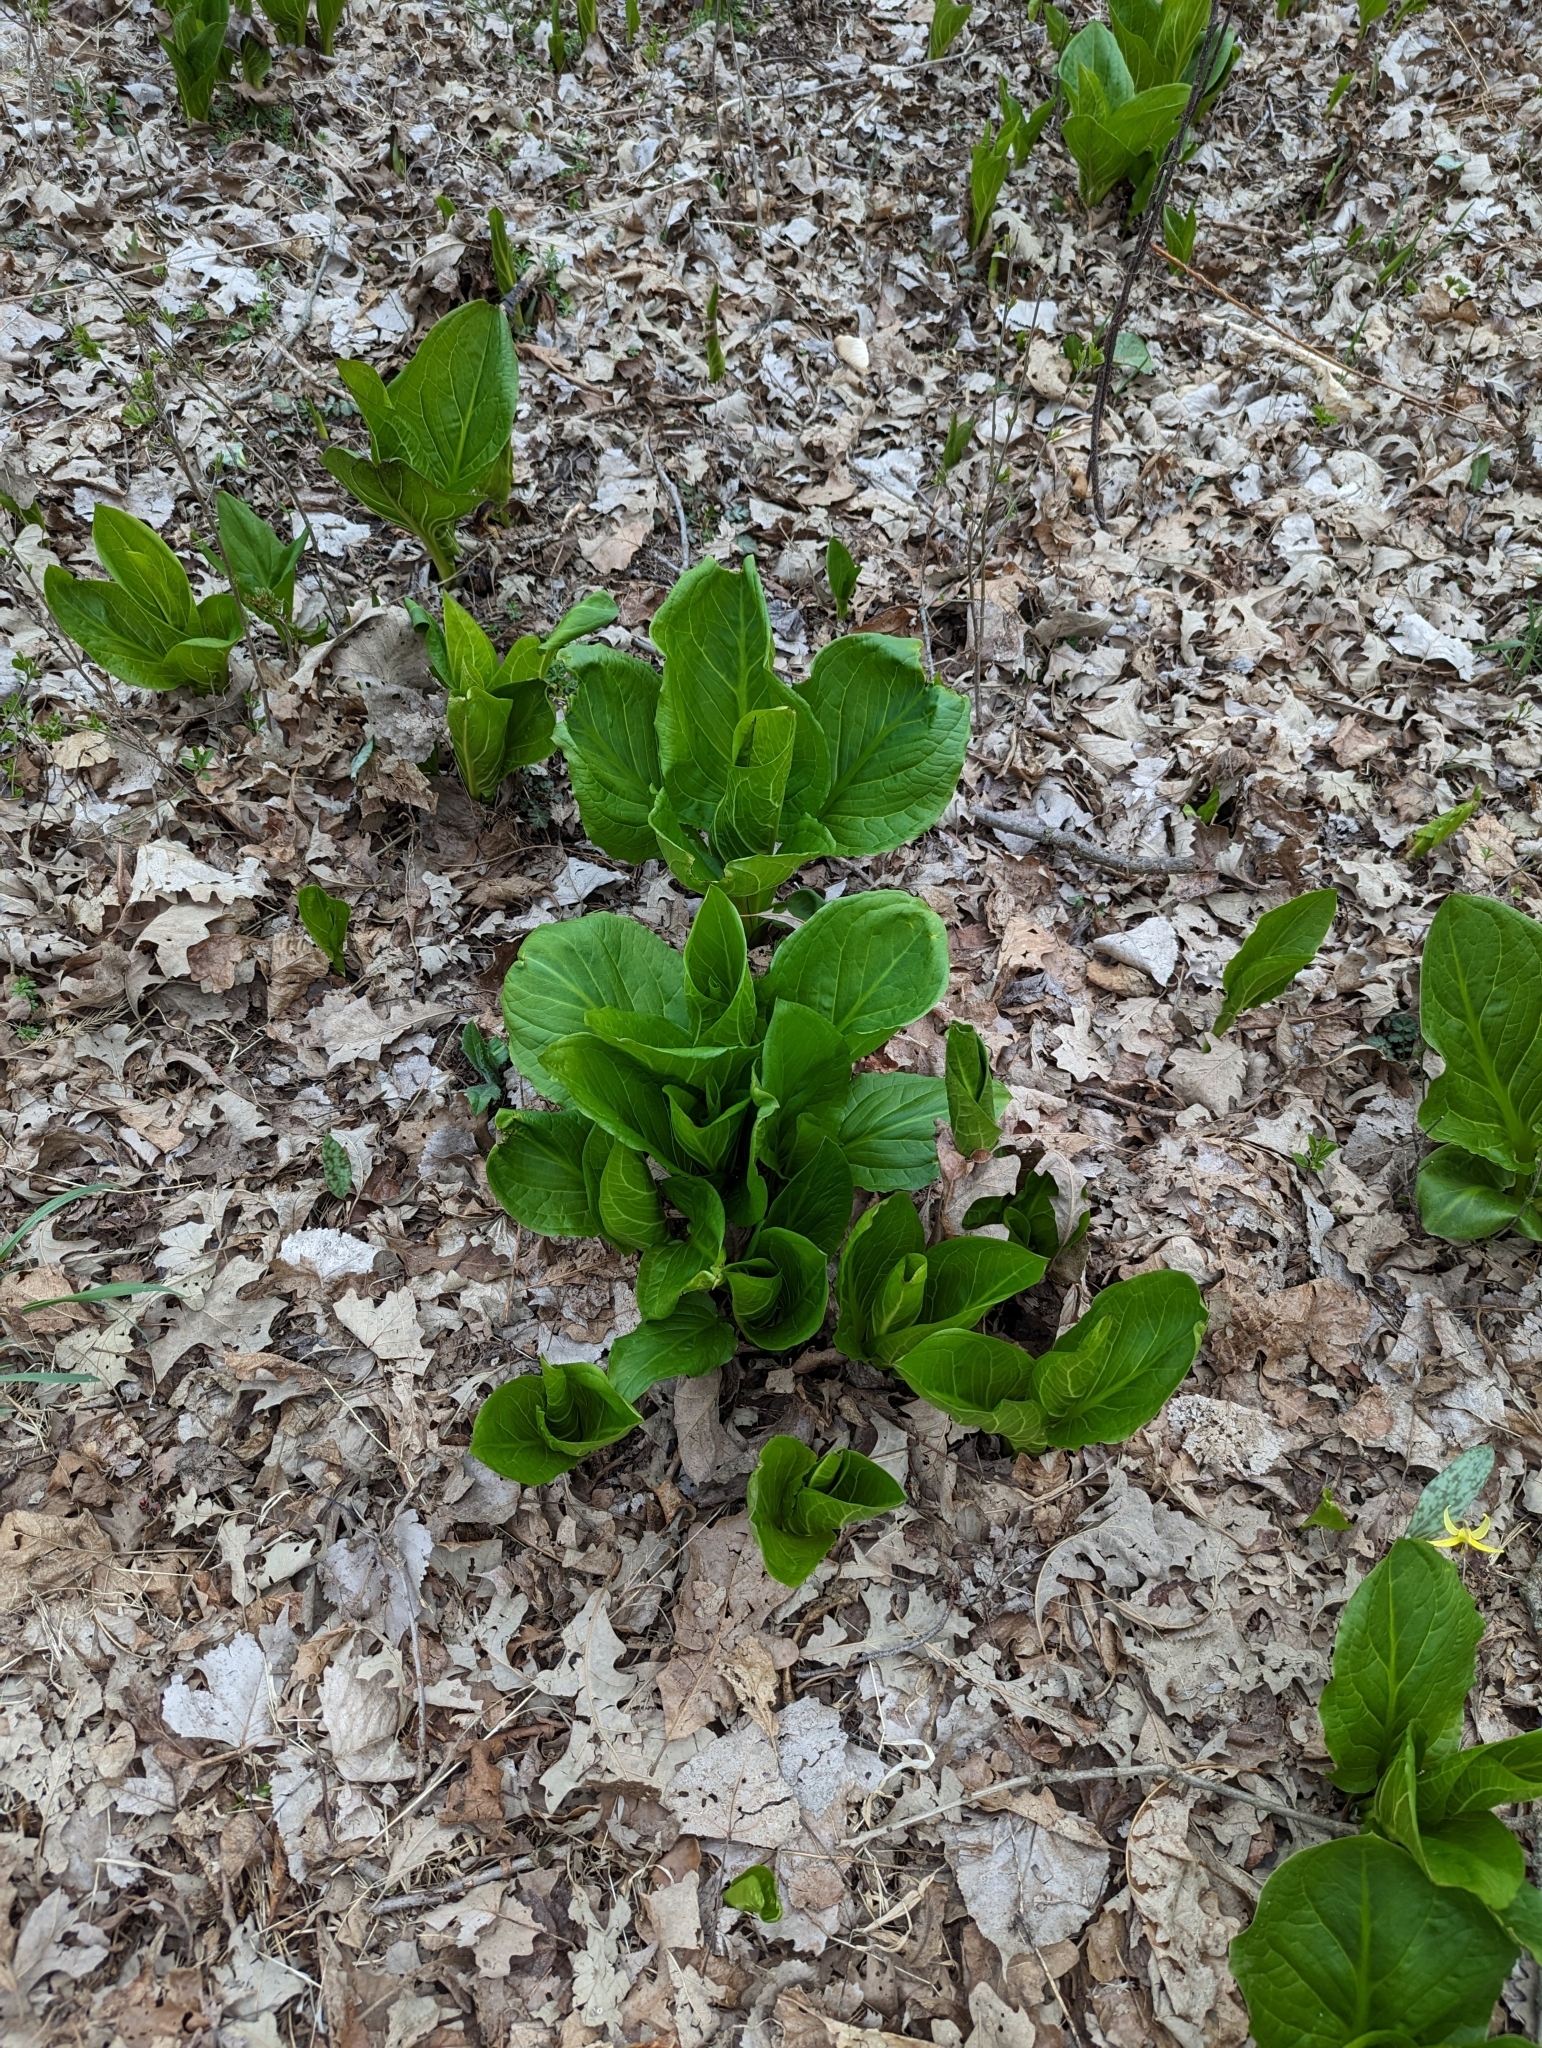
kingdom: Plantae
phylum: Tracheophyta
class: Liliopsida
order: Alismatales
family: Araceae
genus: Symplocarpus
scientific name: Symplocarpus foetidus
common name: Eastern skunk cabbage
